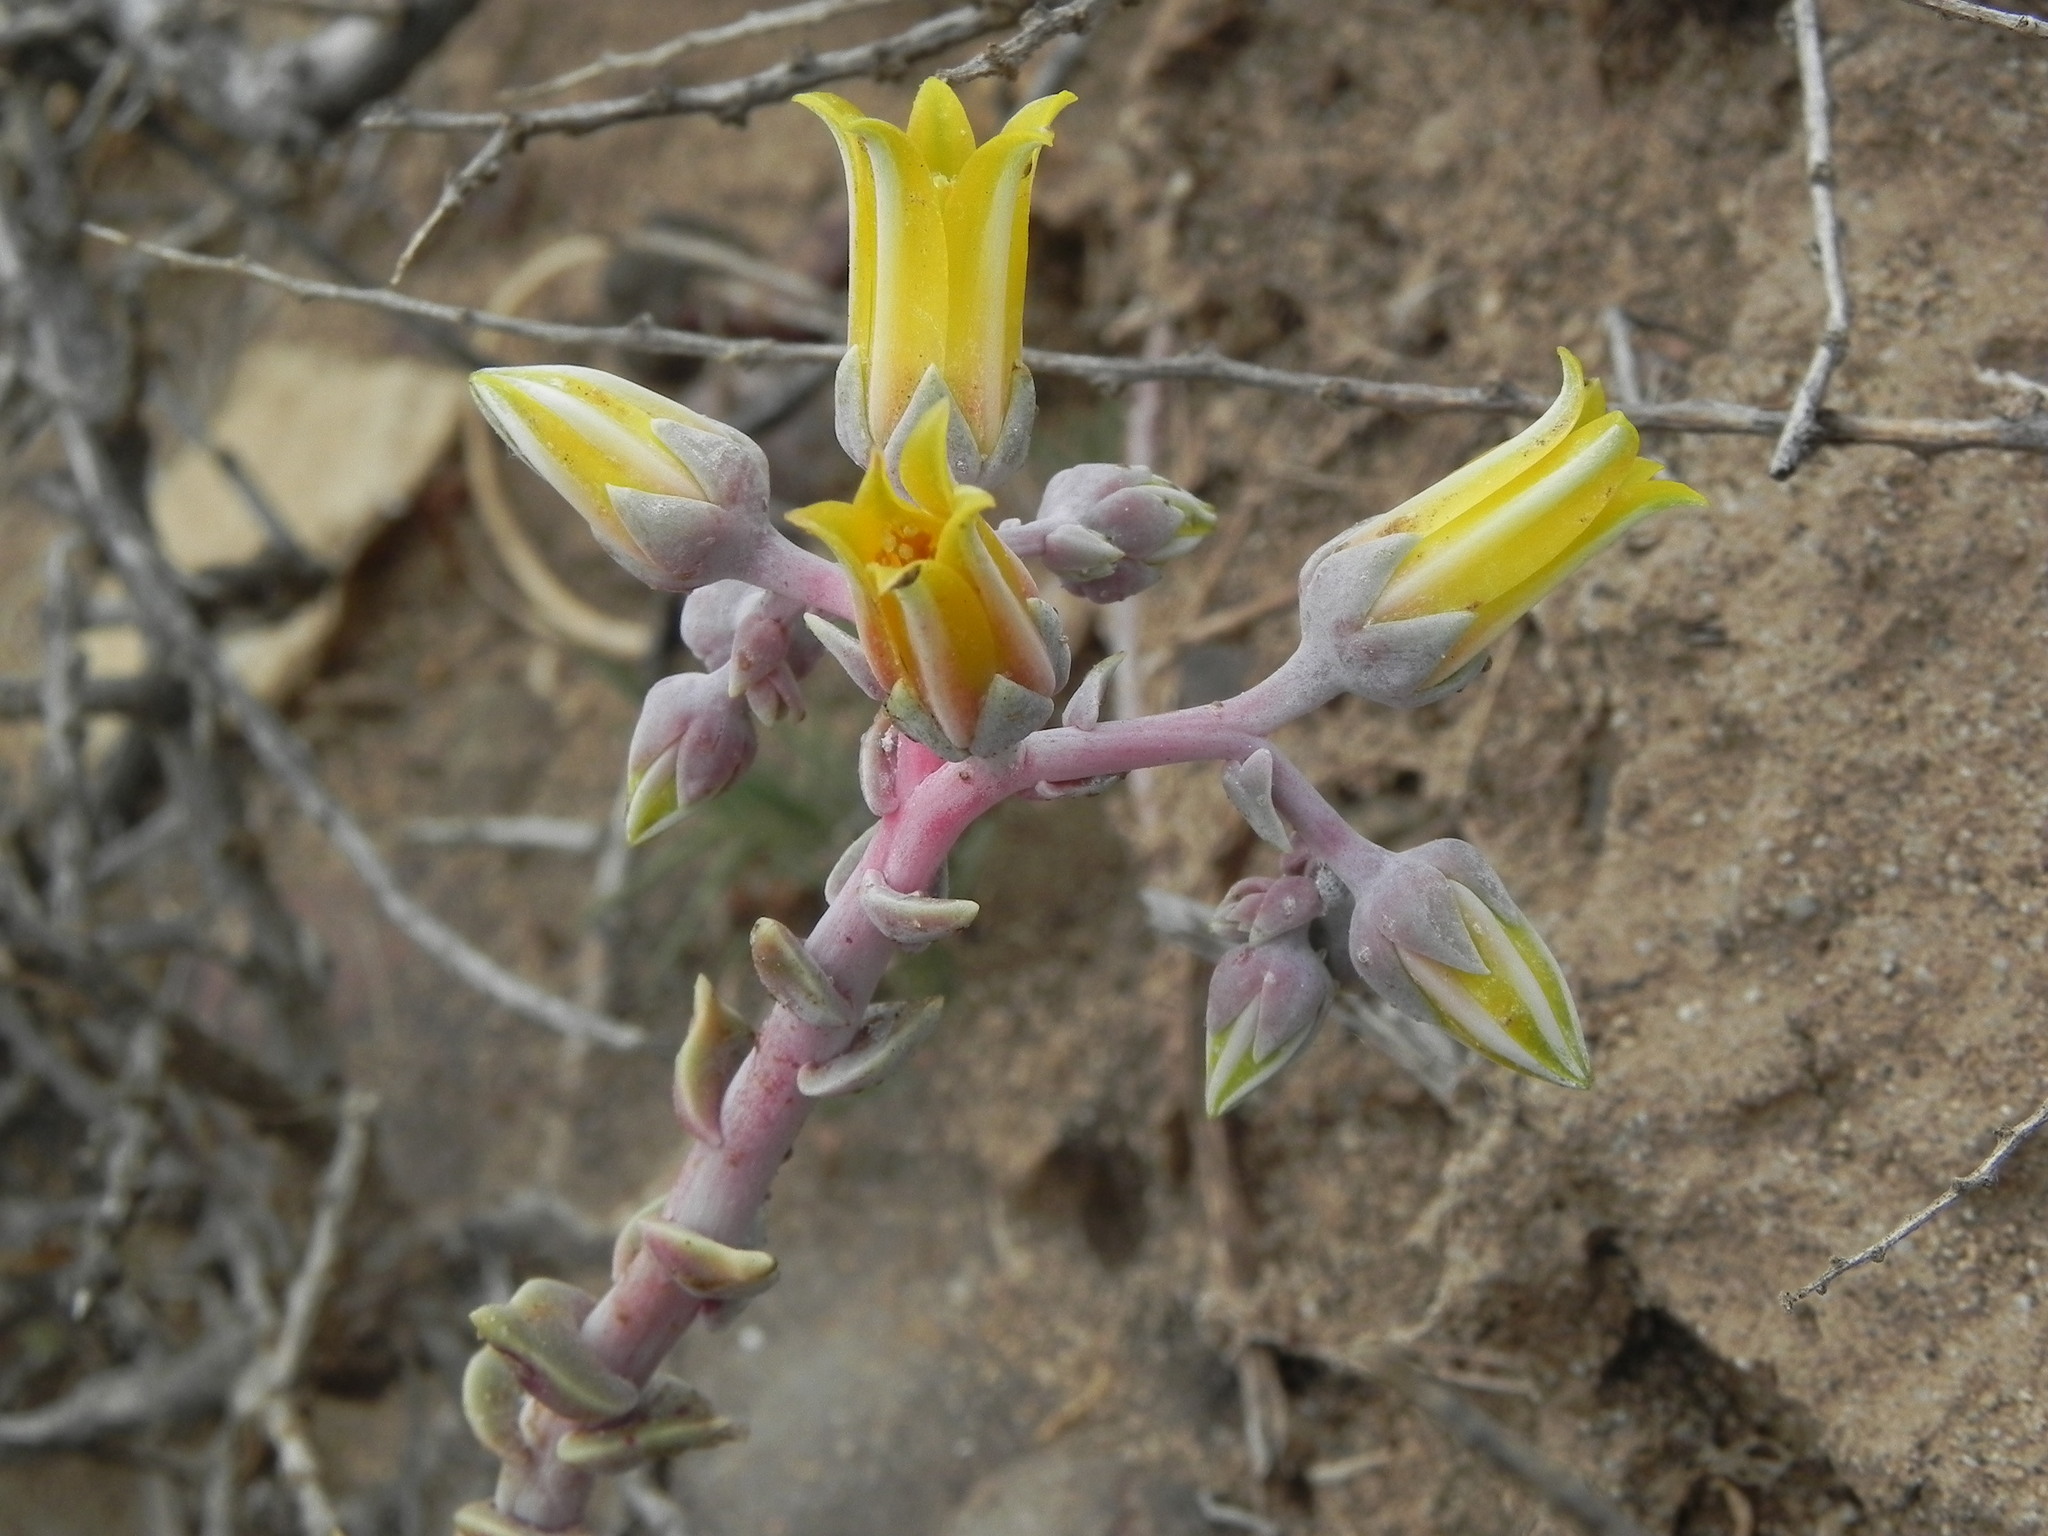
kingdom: Plantae
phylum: Tracheophyta
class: Magnoliopsida
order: Saxifragales
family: Crassulaceae
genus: Dudleya
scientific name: Dudleya caespitosa
